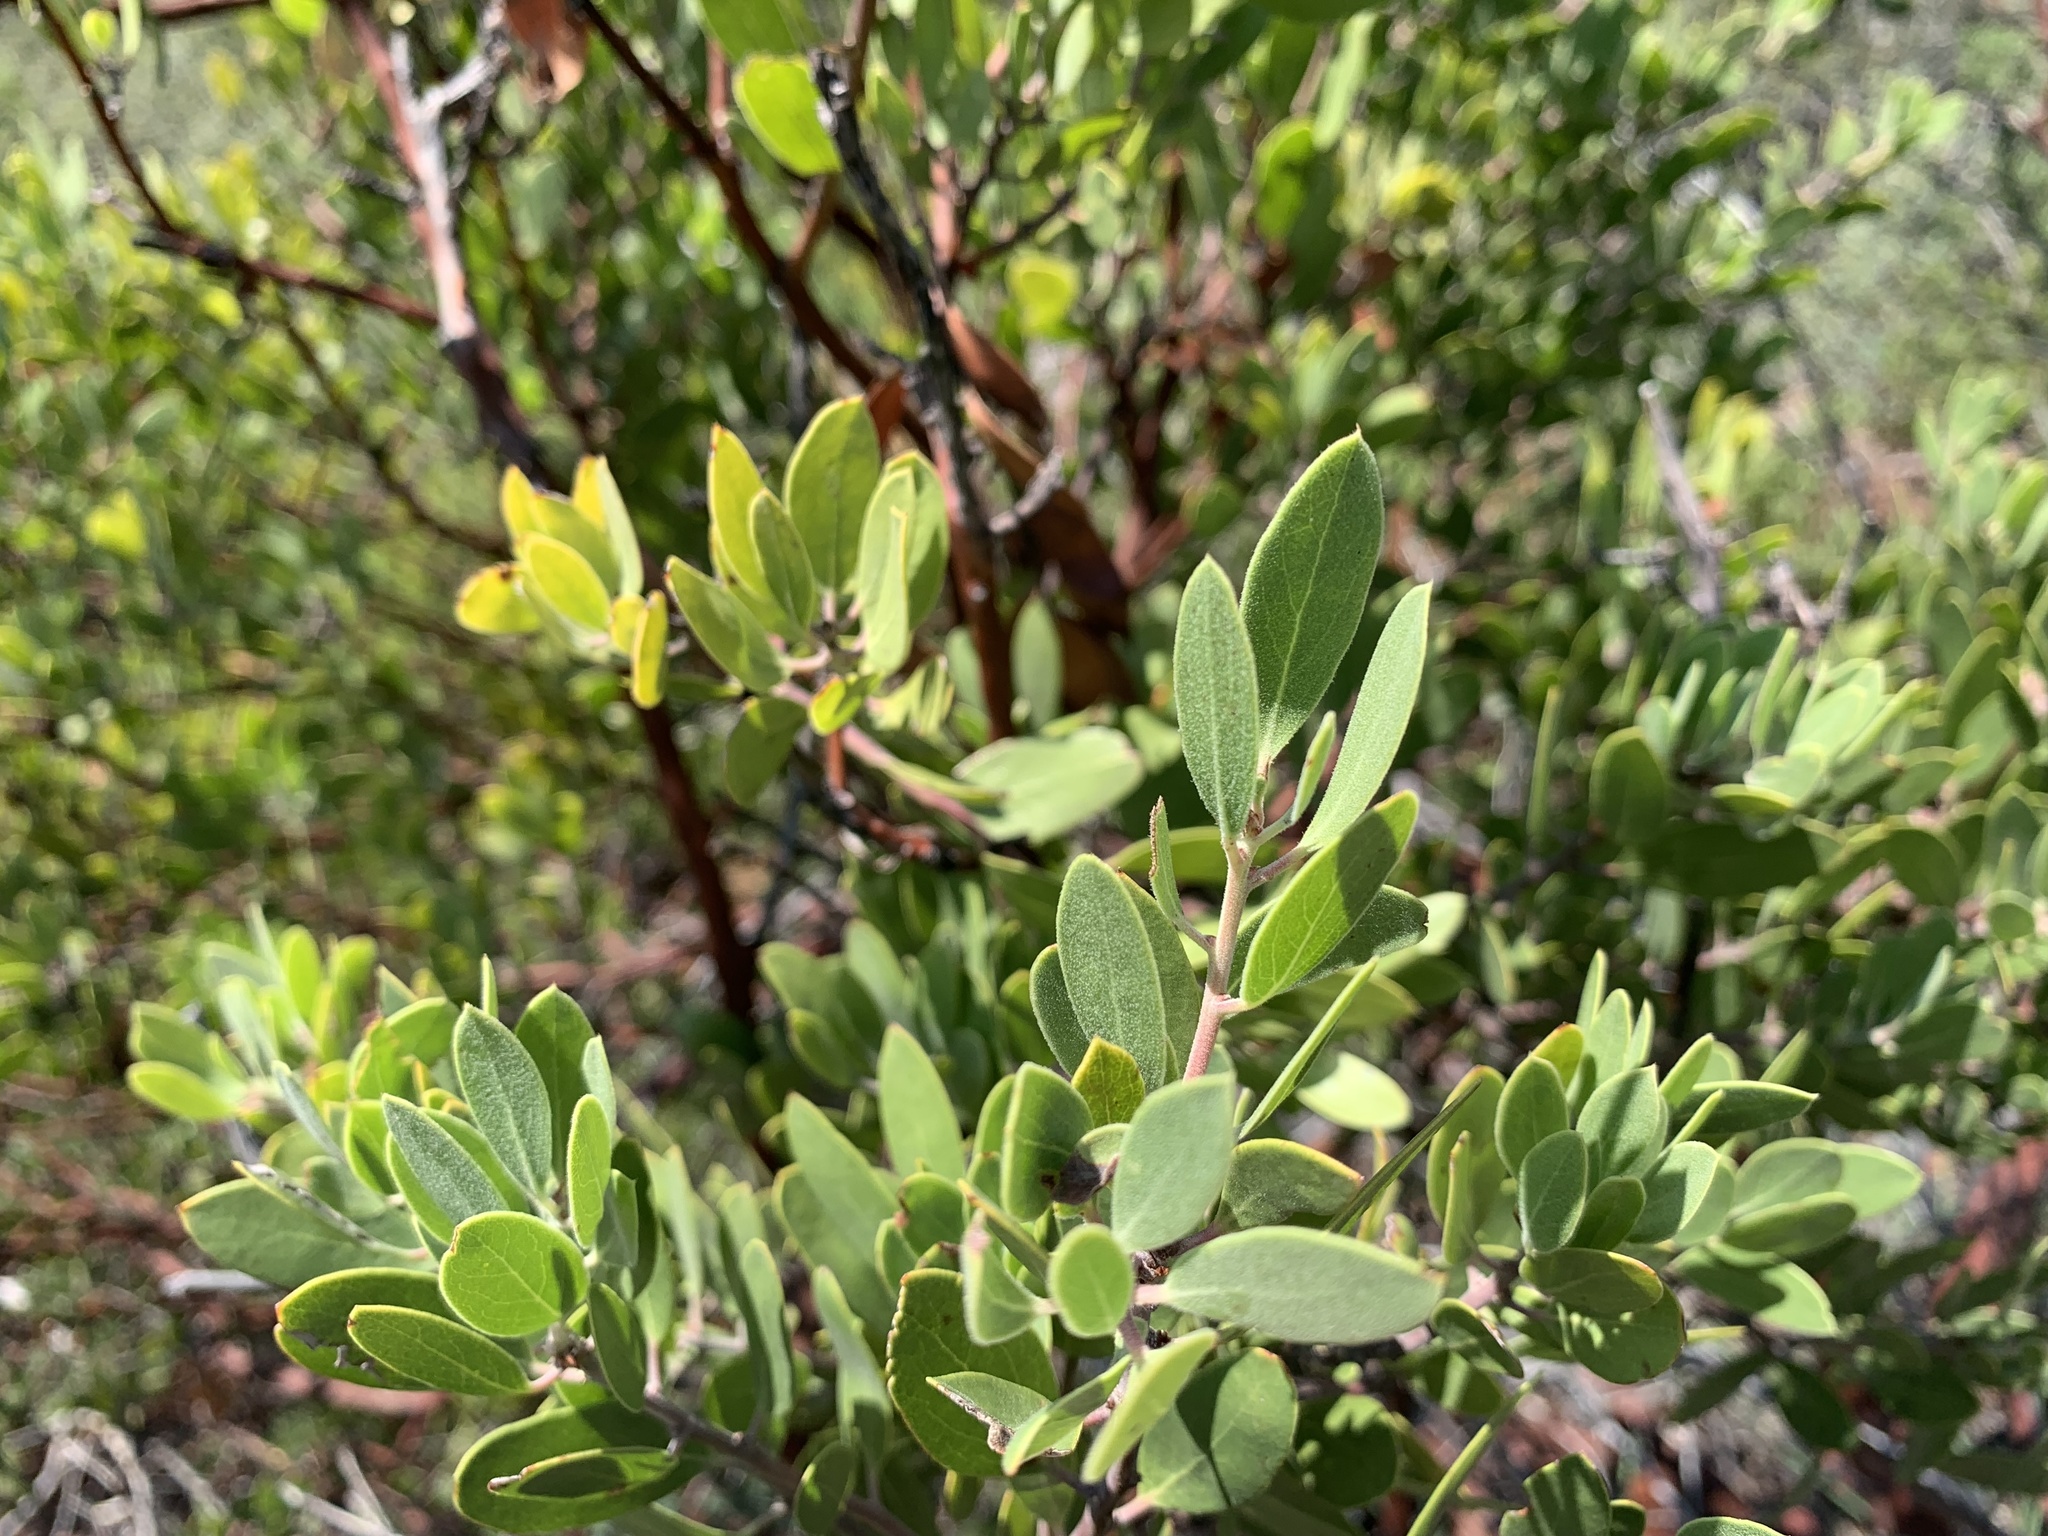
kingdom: Plantae
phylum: Tracheophyta
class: Magnoliopsida
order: Ericales
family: Ericaceae
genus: Arctostaphylos
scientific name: Arctostaphylos pungens
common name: Mexican manzanita
